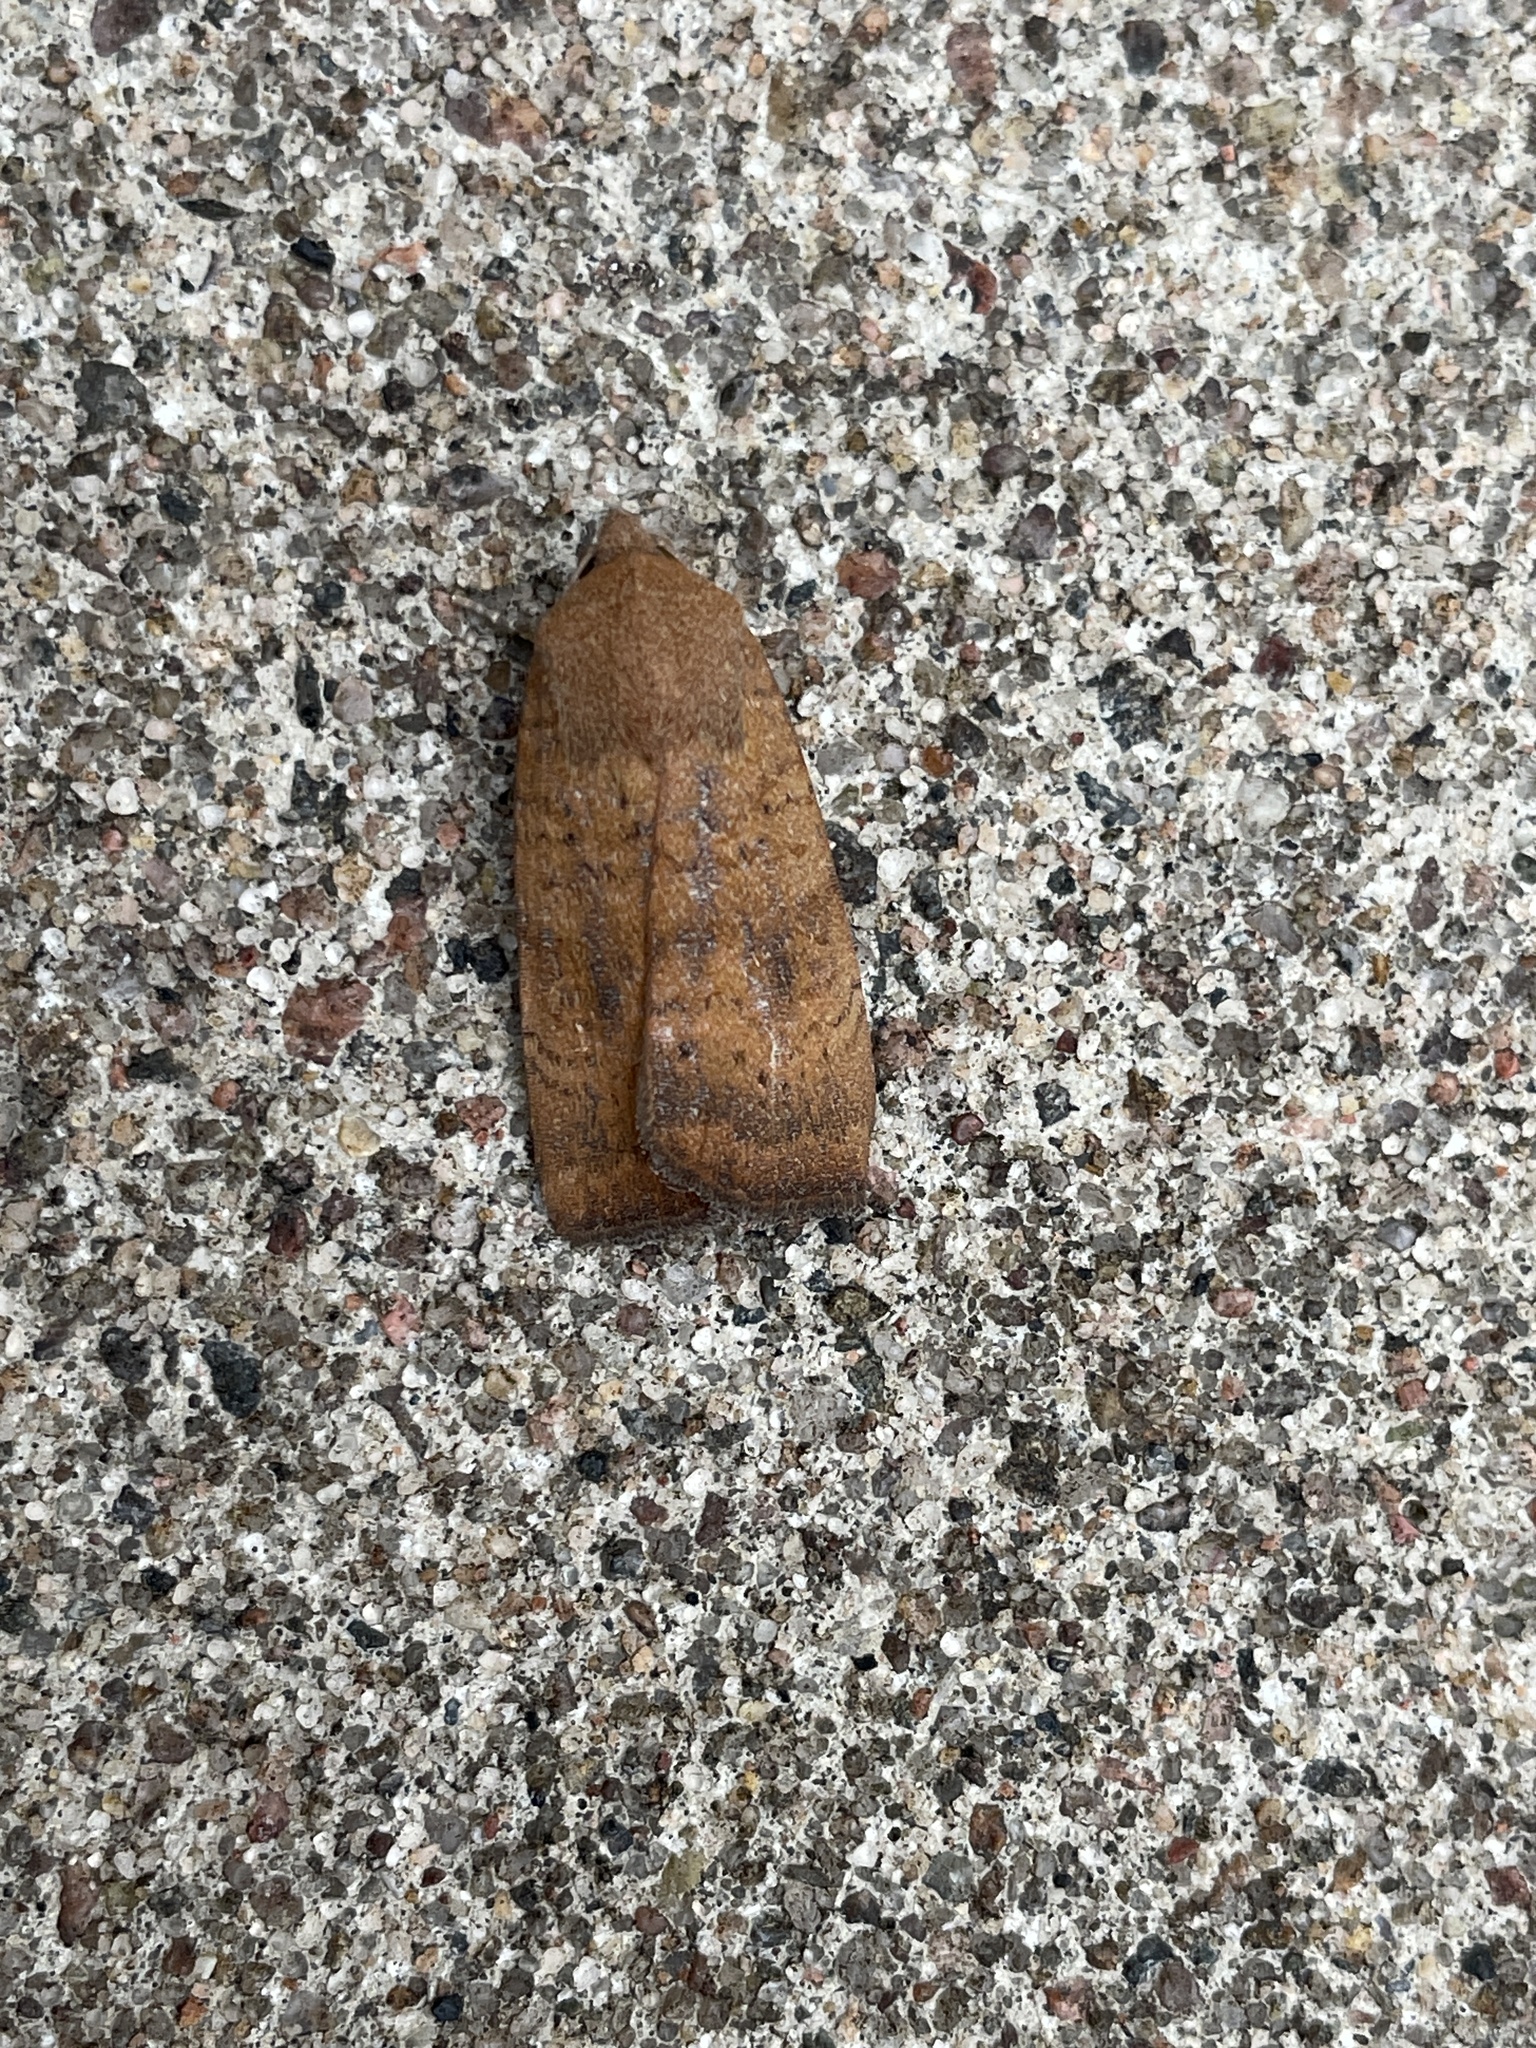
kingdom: Animalia
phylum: Arthropoda
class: Insecta
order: Lepidoptera
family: Noctuidae
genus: Noctua
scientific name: Noctua interjecta
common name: Least yellow underwing
